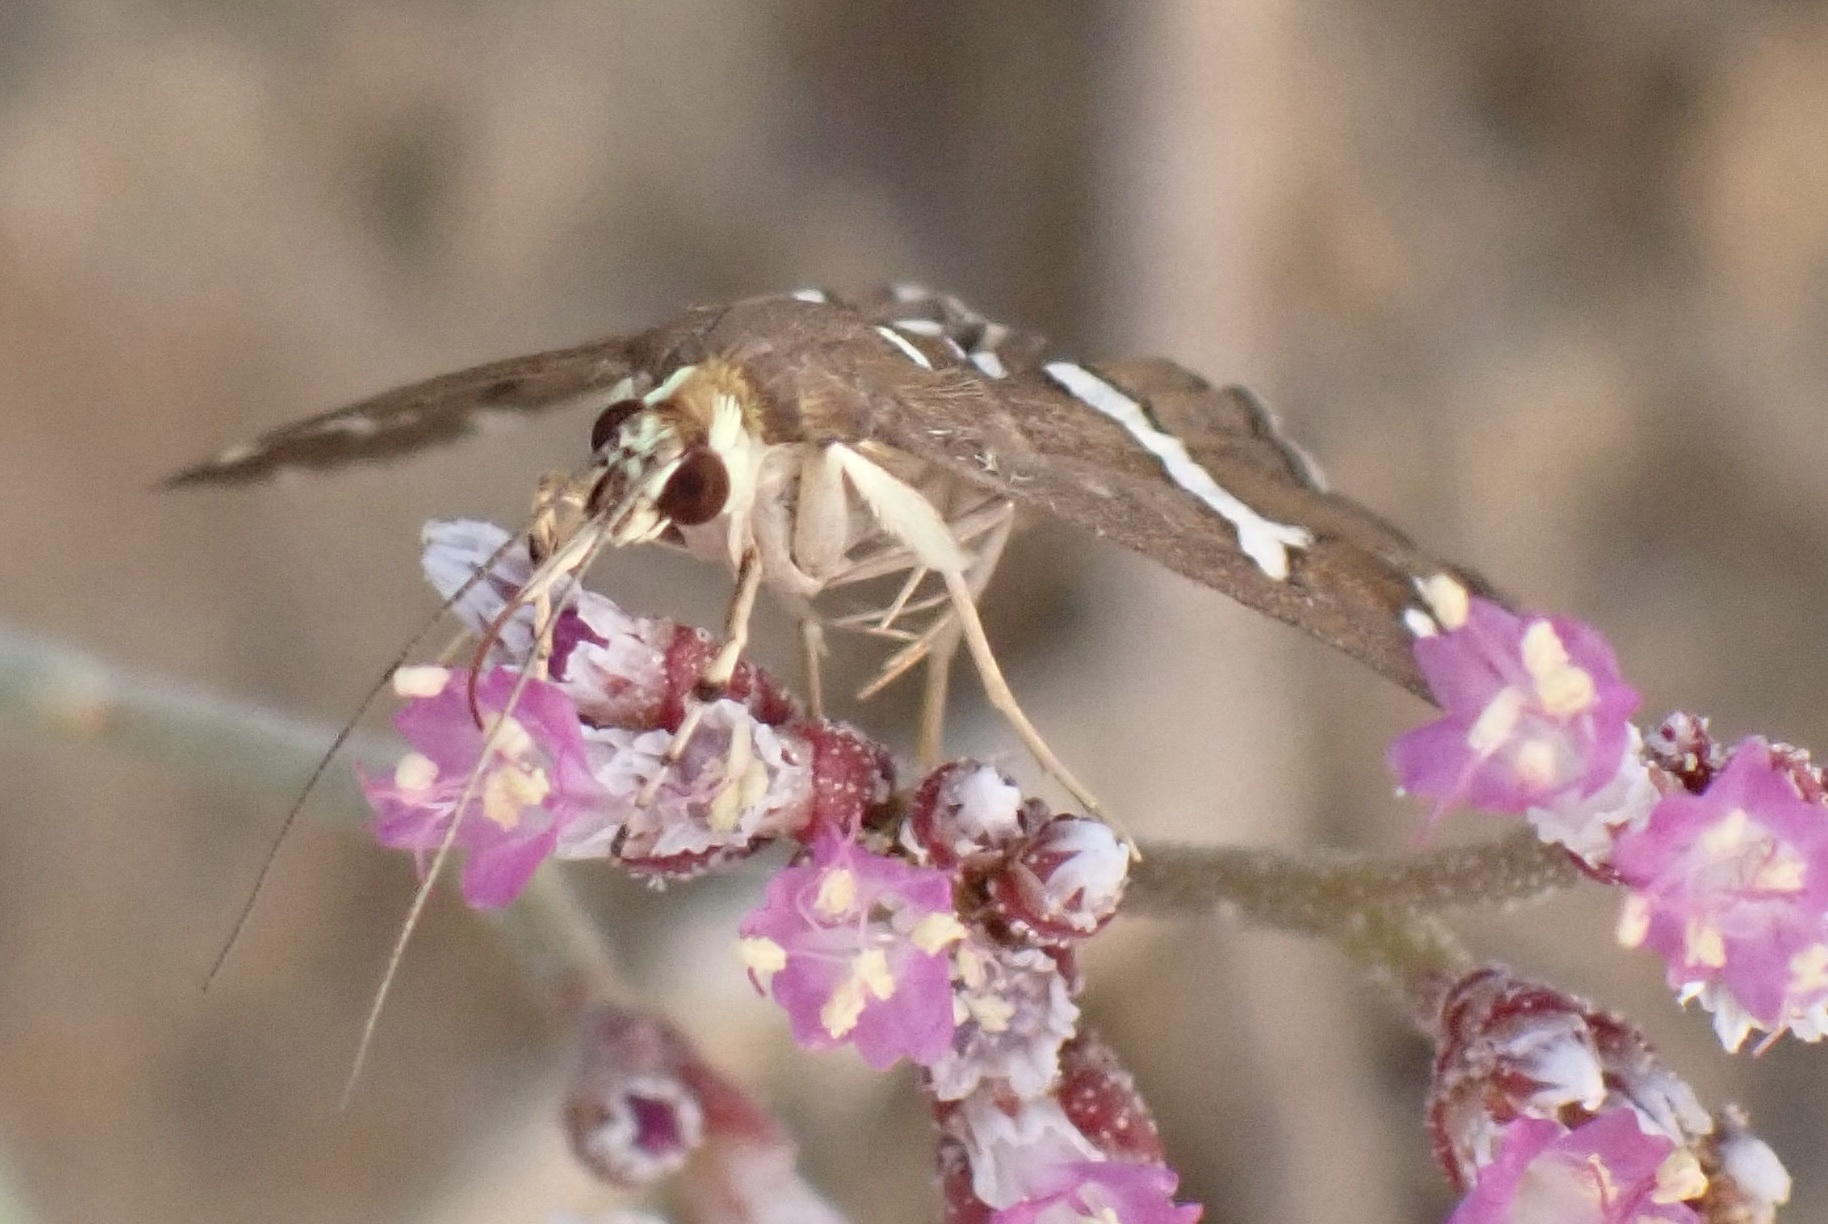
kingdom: Animalia
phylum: Arthropoda
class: Insecta
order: Lepidoptera
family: Crambidae
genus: Spoladea
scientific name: Spoladea recurvalis
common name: Beet webworm moth
